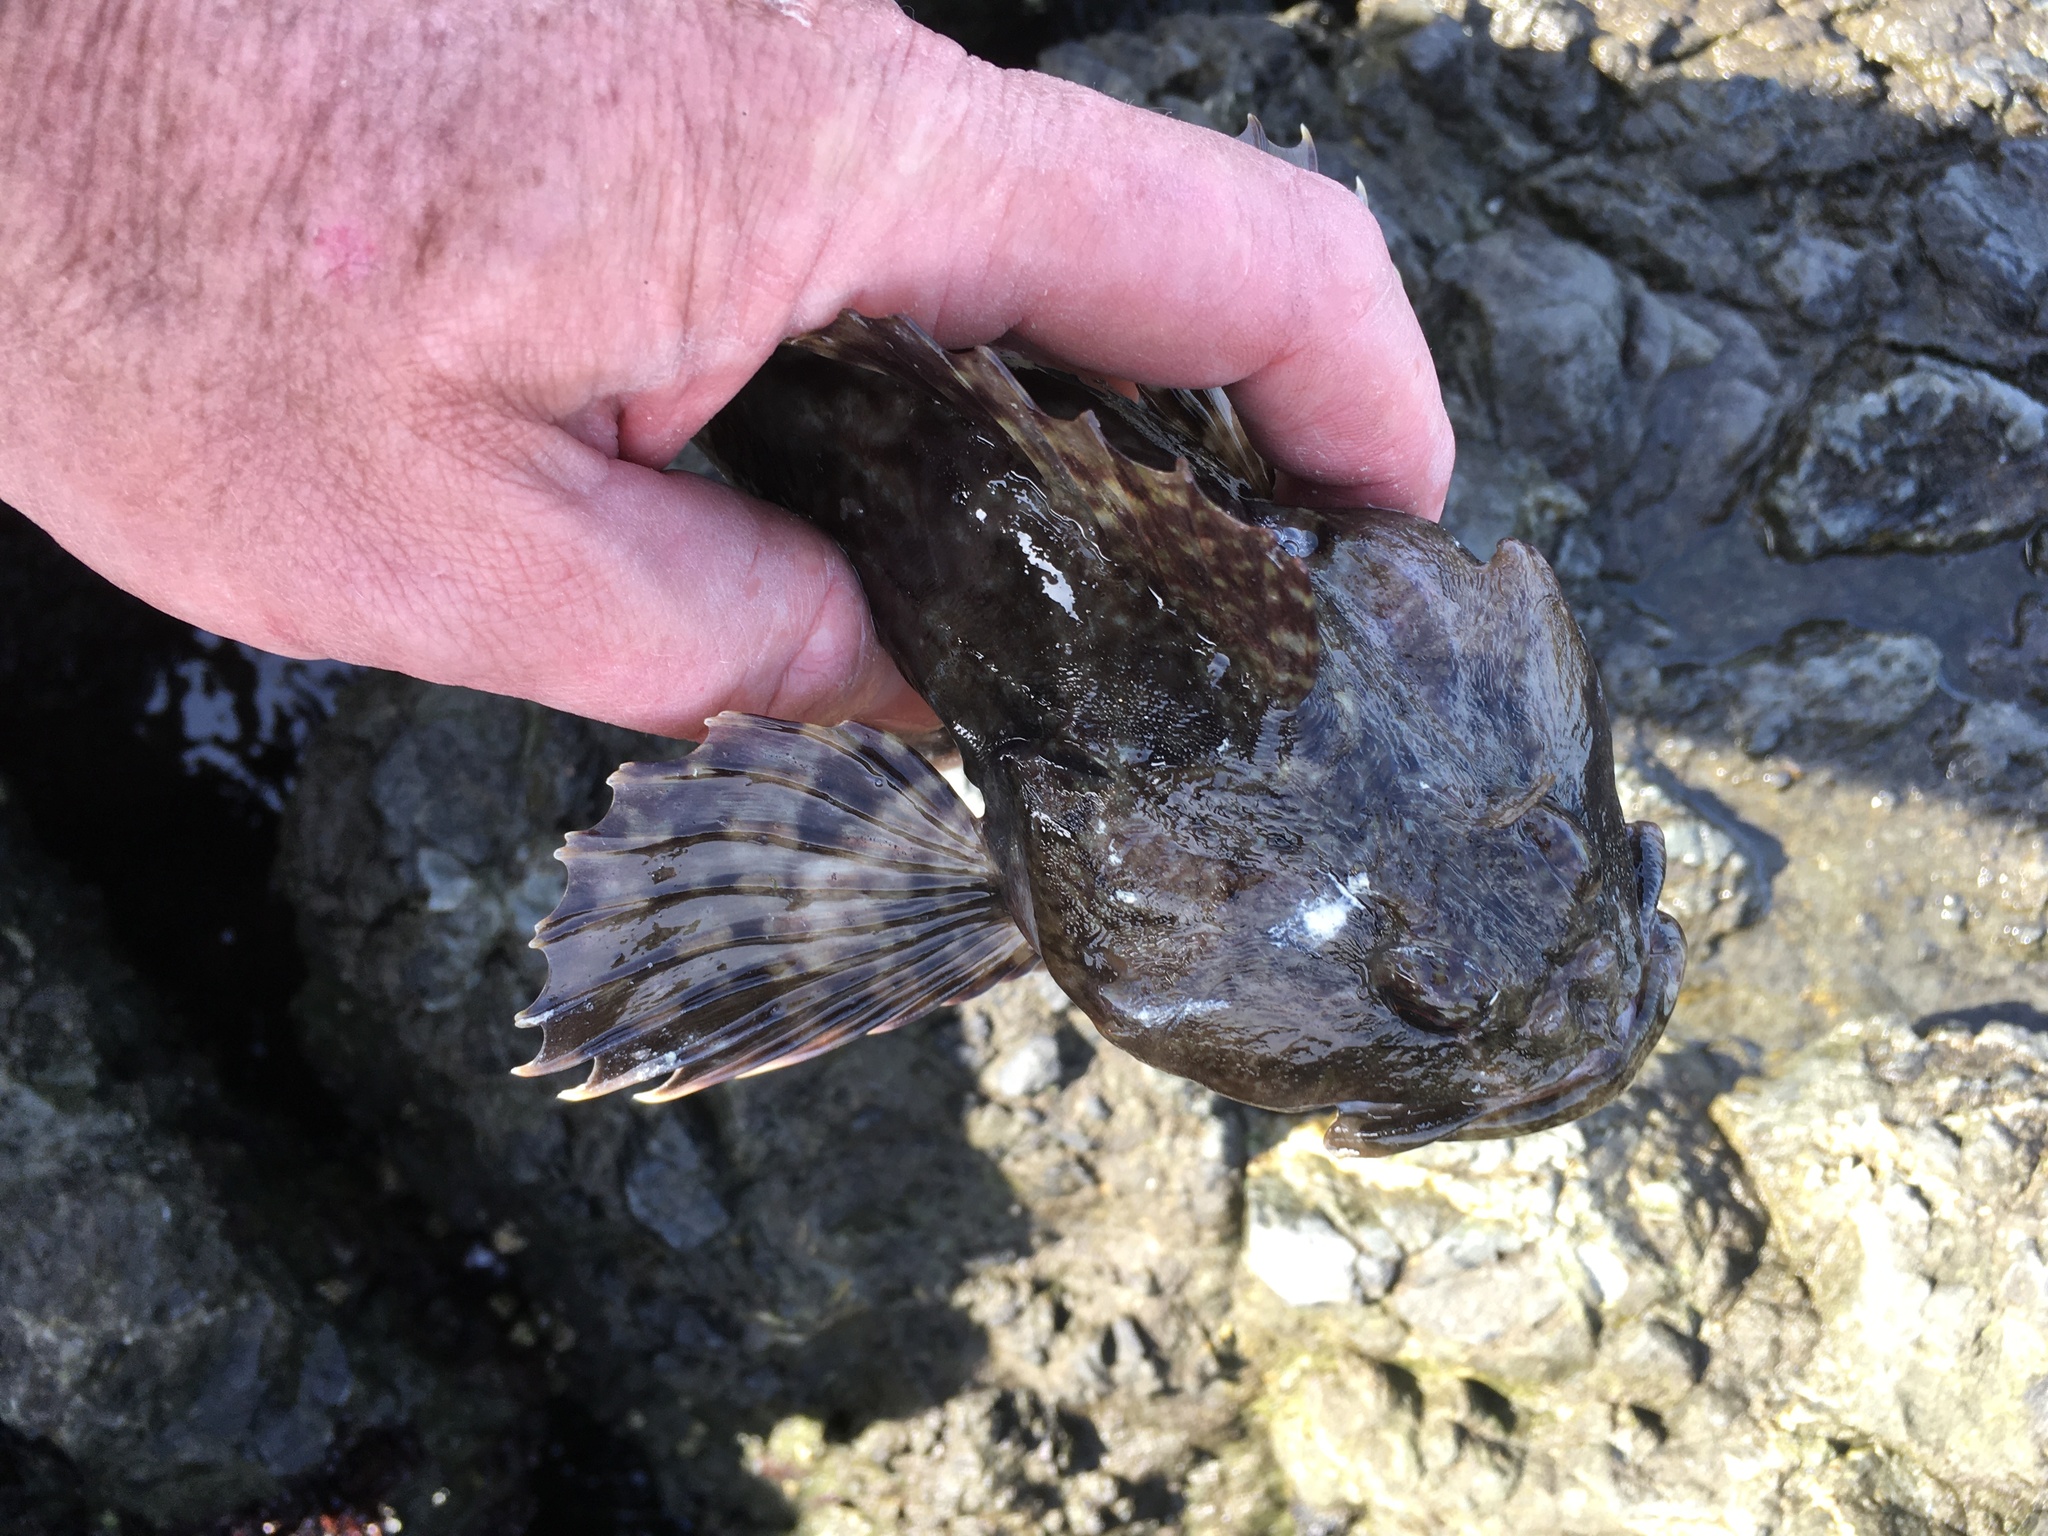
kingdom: Animalia
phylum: Chordata
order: Scorpaeniformes
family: Cottidae
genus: Scorpaenichthys
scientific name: Scorpaenichthys marmoratus
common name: Cabezon
